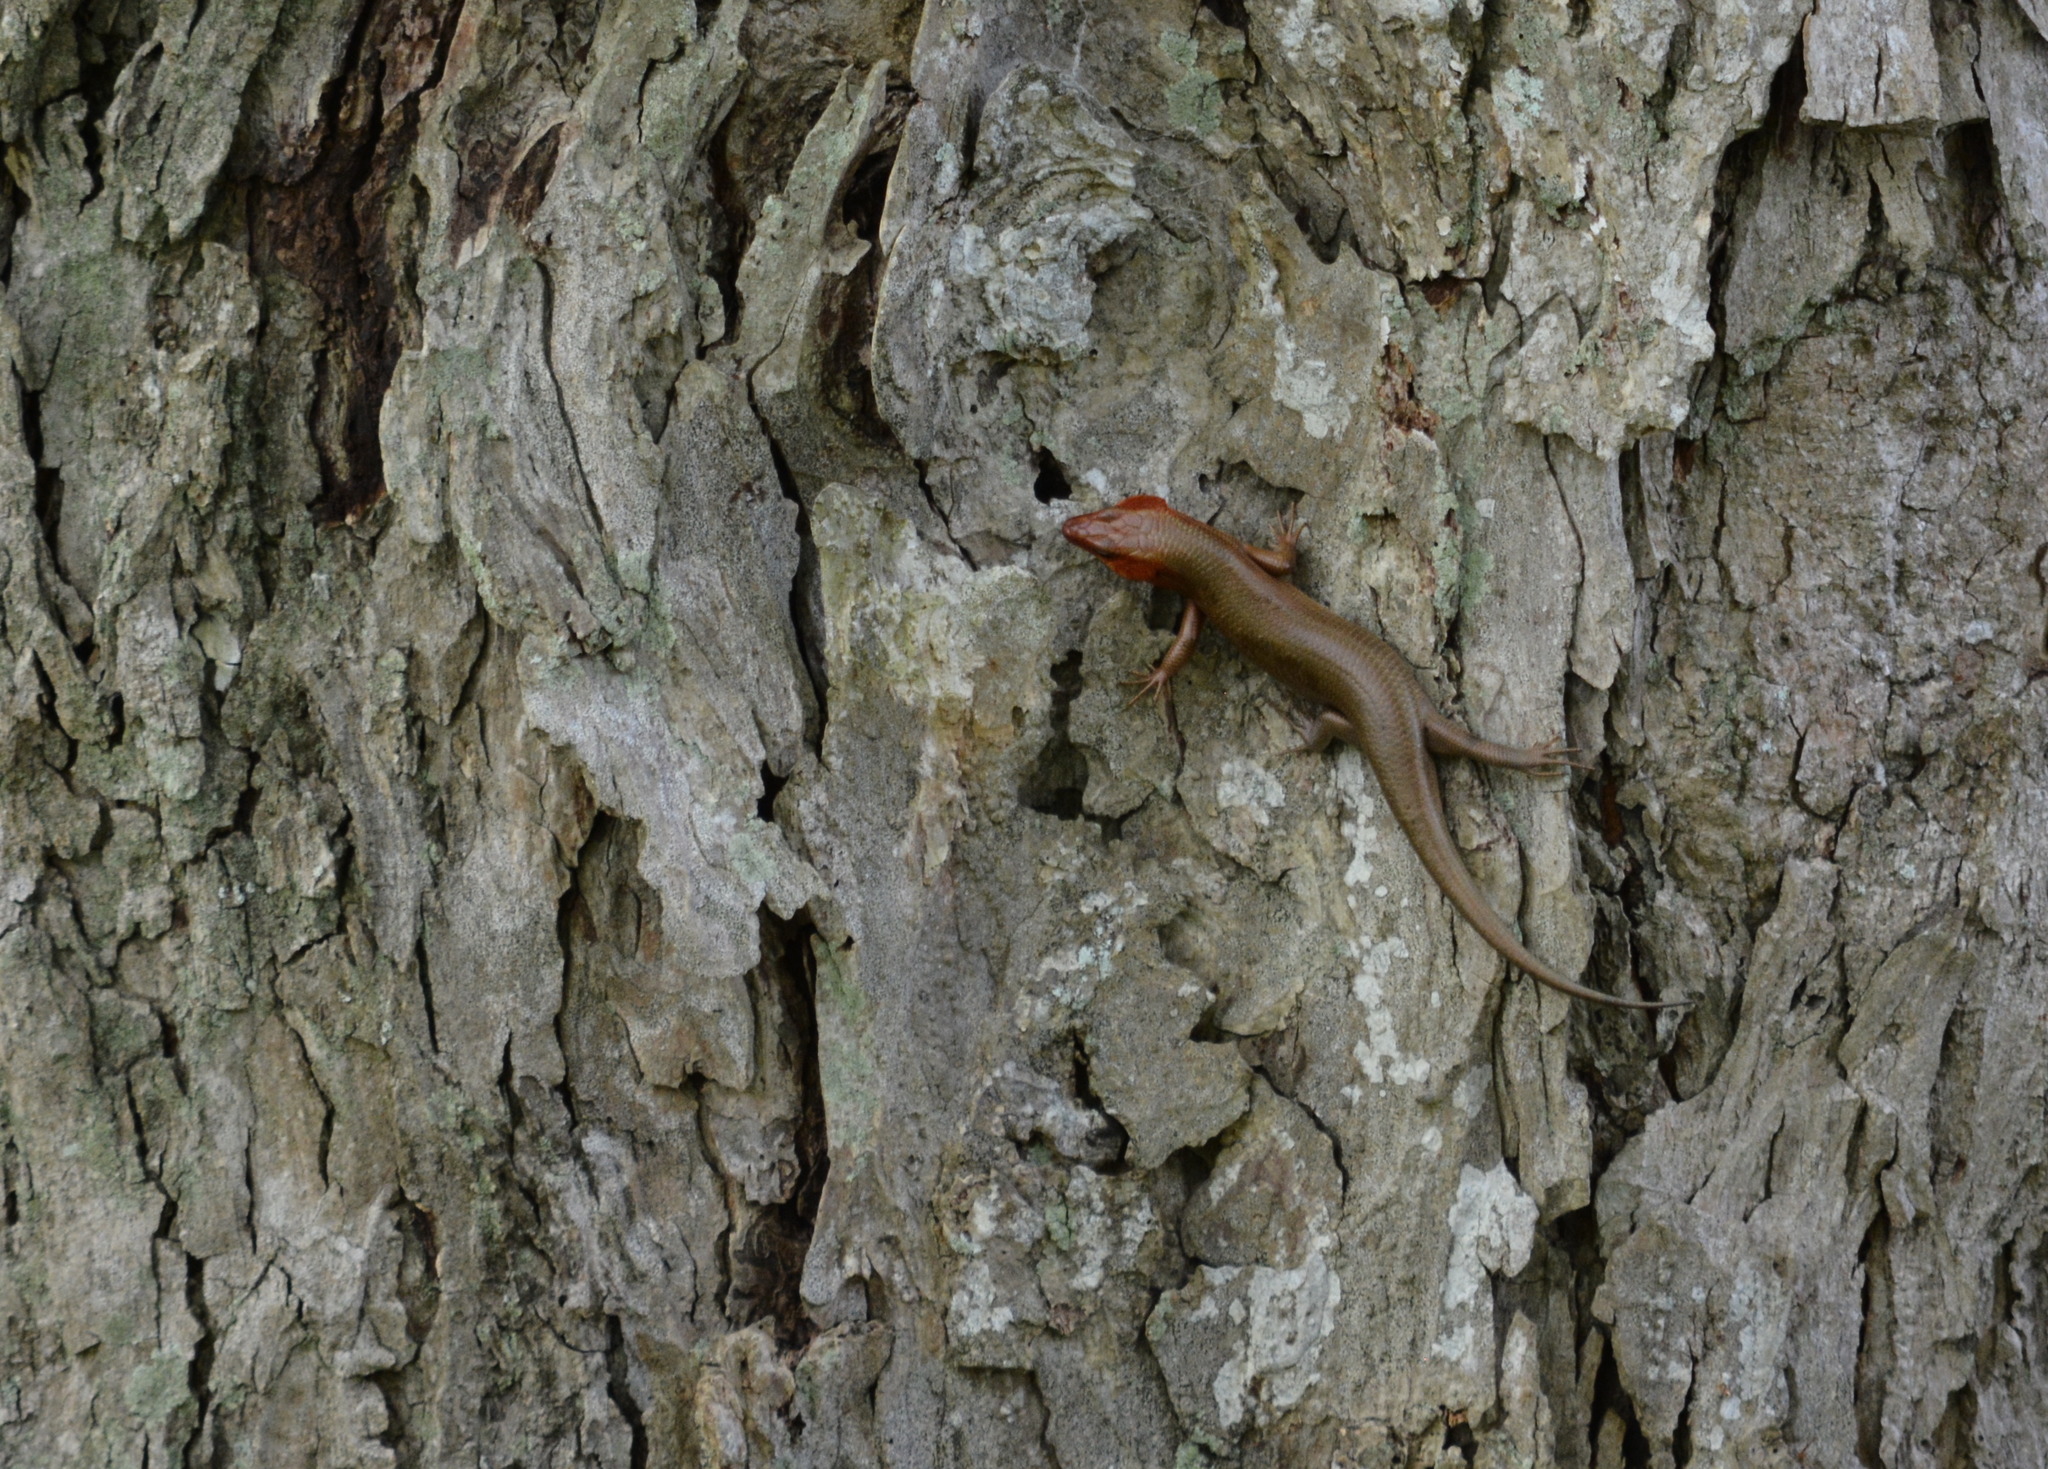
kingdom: Animalia
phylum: Chordata
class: Squamata
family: Scincidae
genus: Plestiodon
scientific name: Plestiodon laticeps
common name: Broadhead skink
